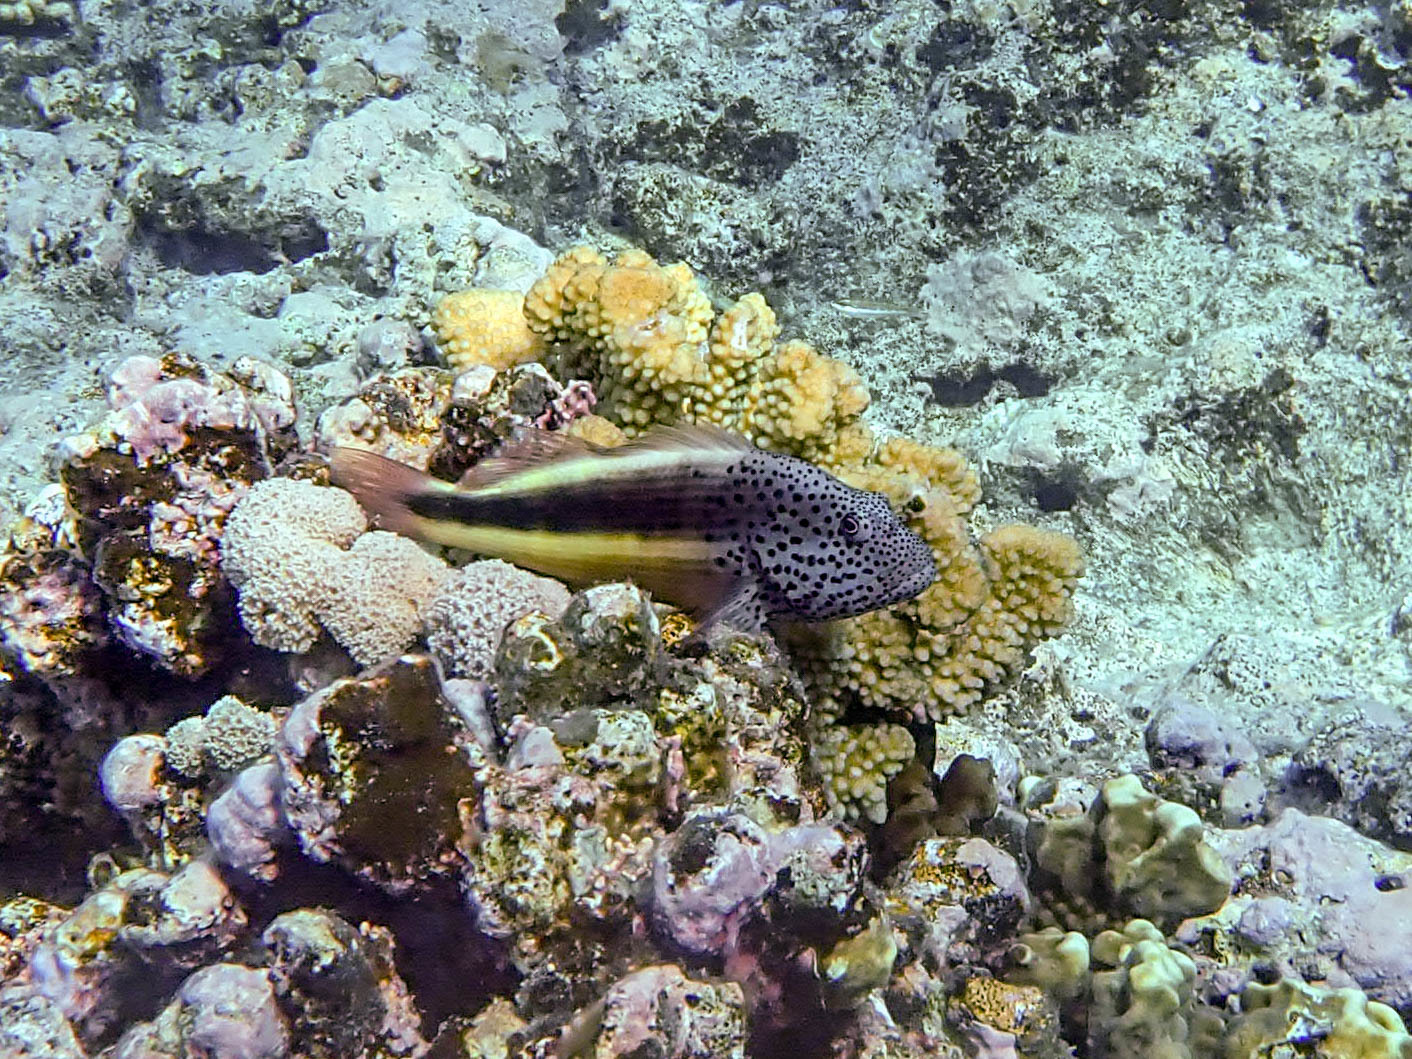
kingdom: Animalia
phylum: Chordata
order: Perciformes
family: Cirrhitidae
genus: Paracirrhites
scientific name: Paracirrhites forsteri
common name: Freckled hawkfish
